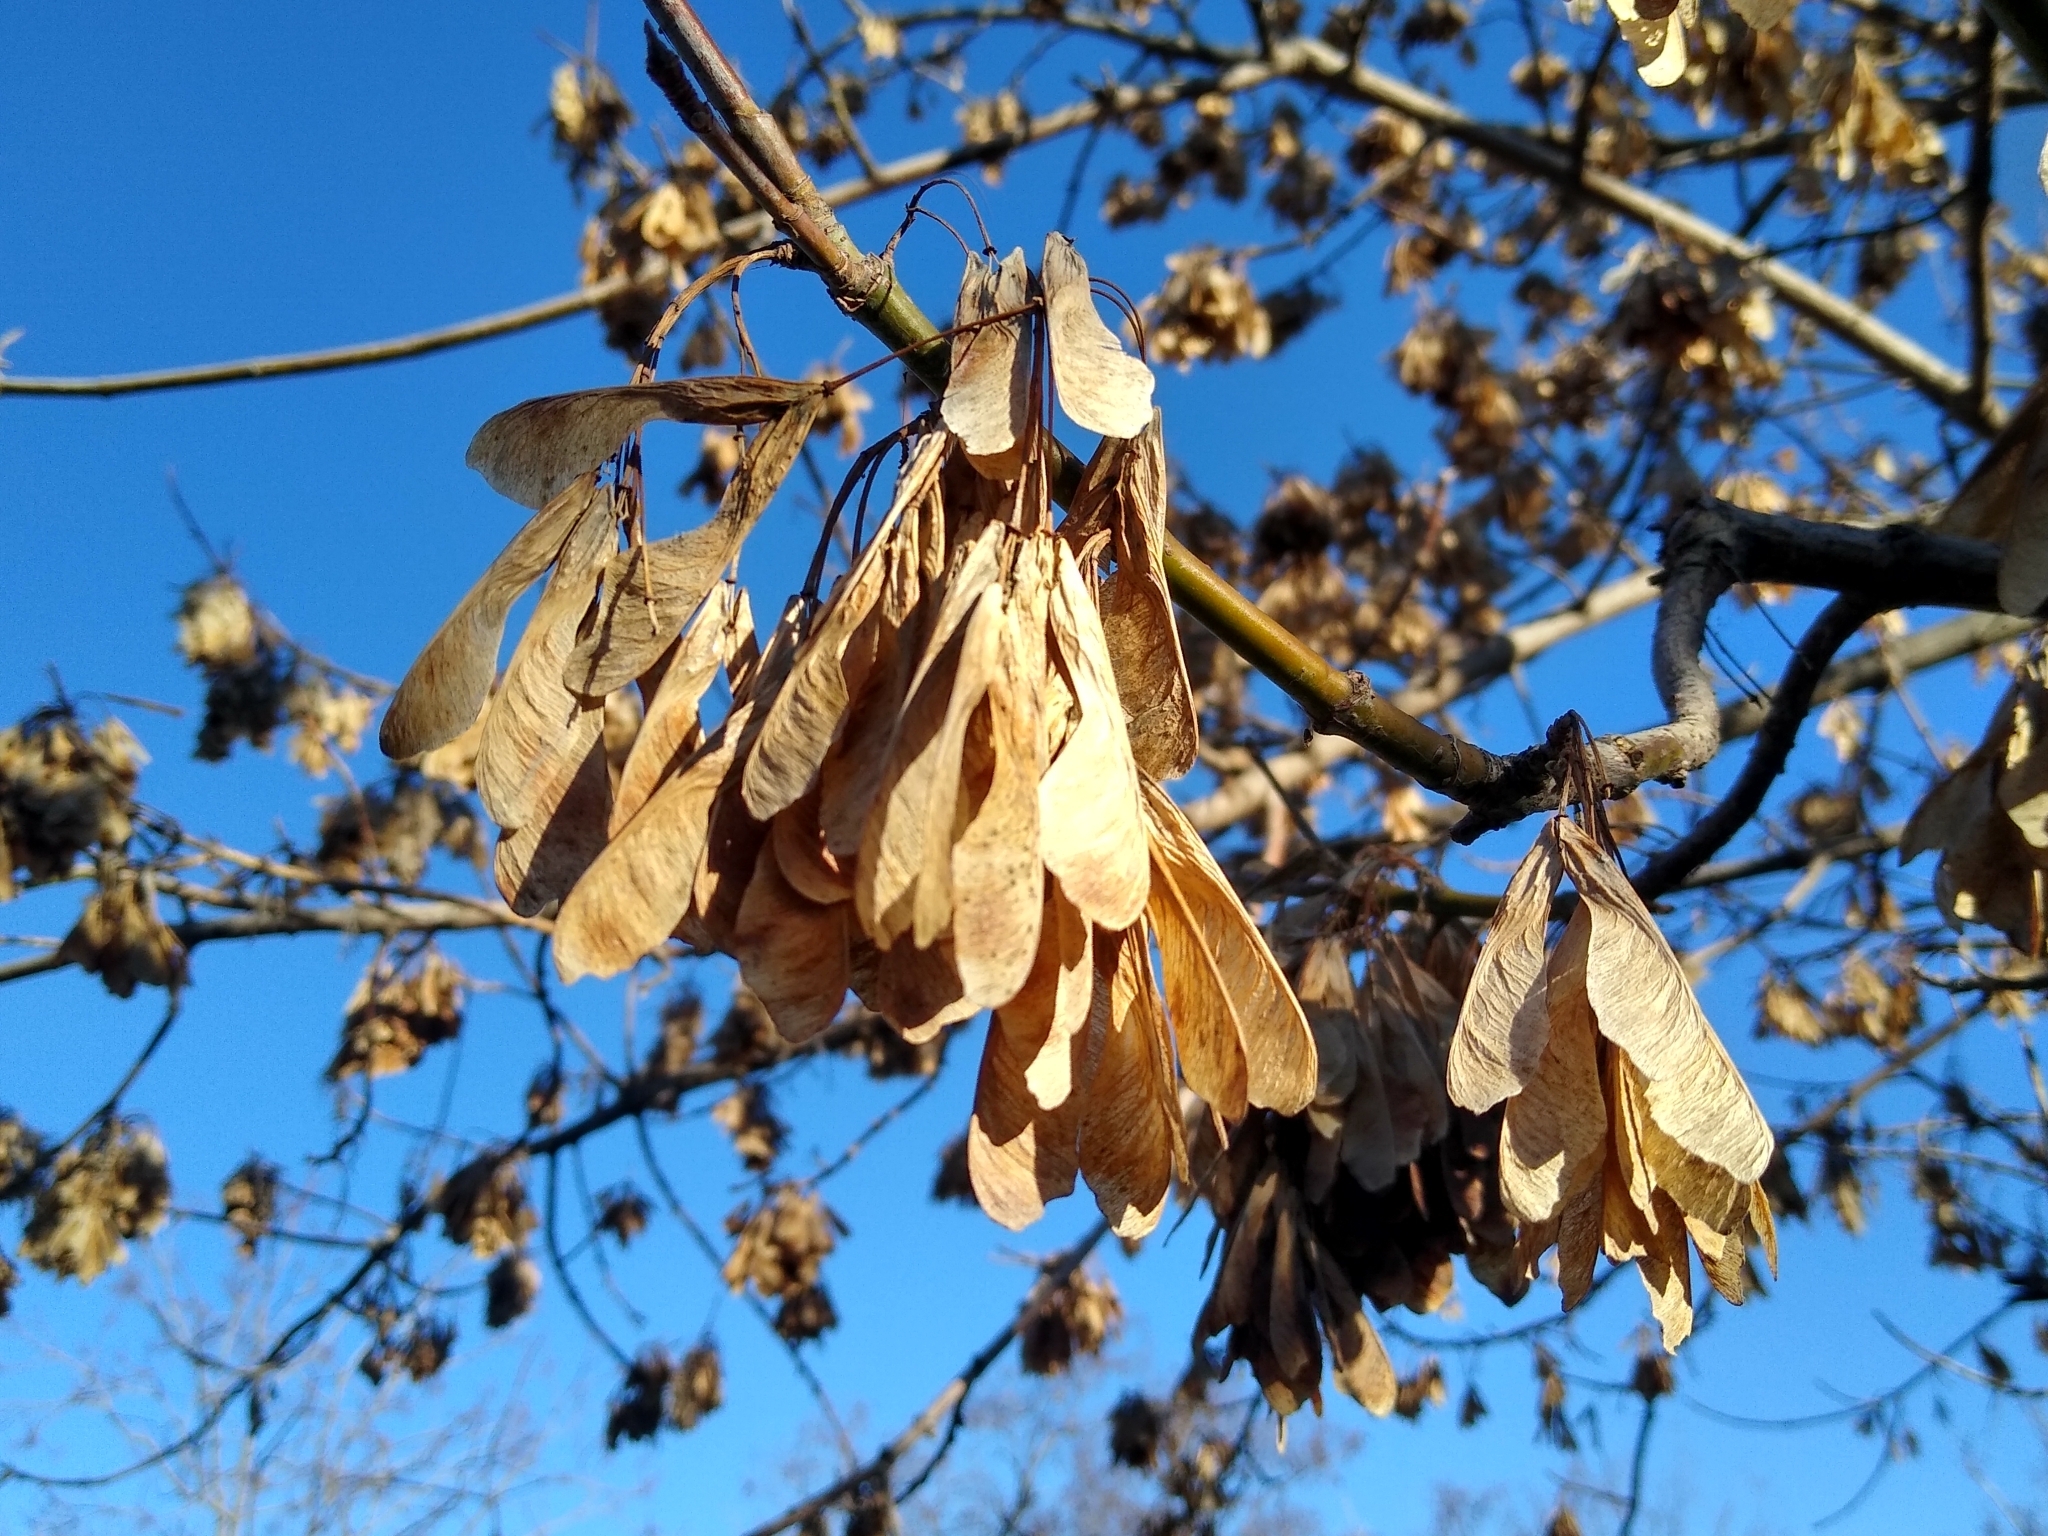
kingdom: Plantae
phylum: Tracheophyta
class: Magnoliopsida
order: Sapindales
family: Sapindaceae
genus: Acer
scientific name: Acer negundo
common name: Ashleaf maple
